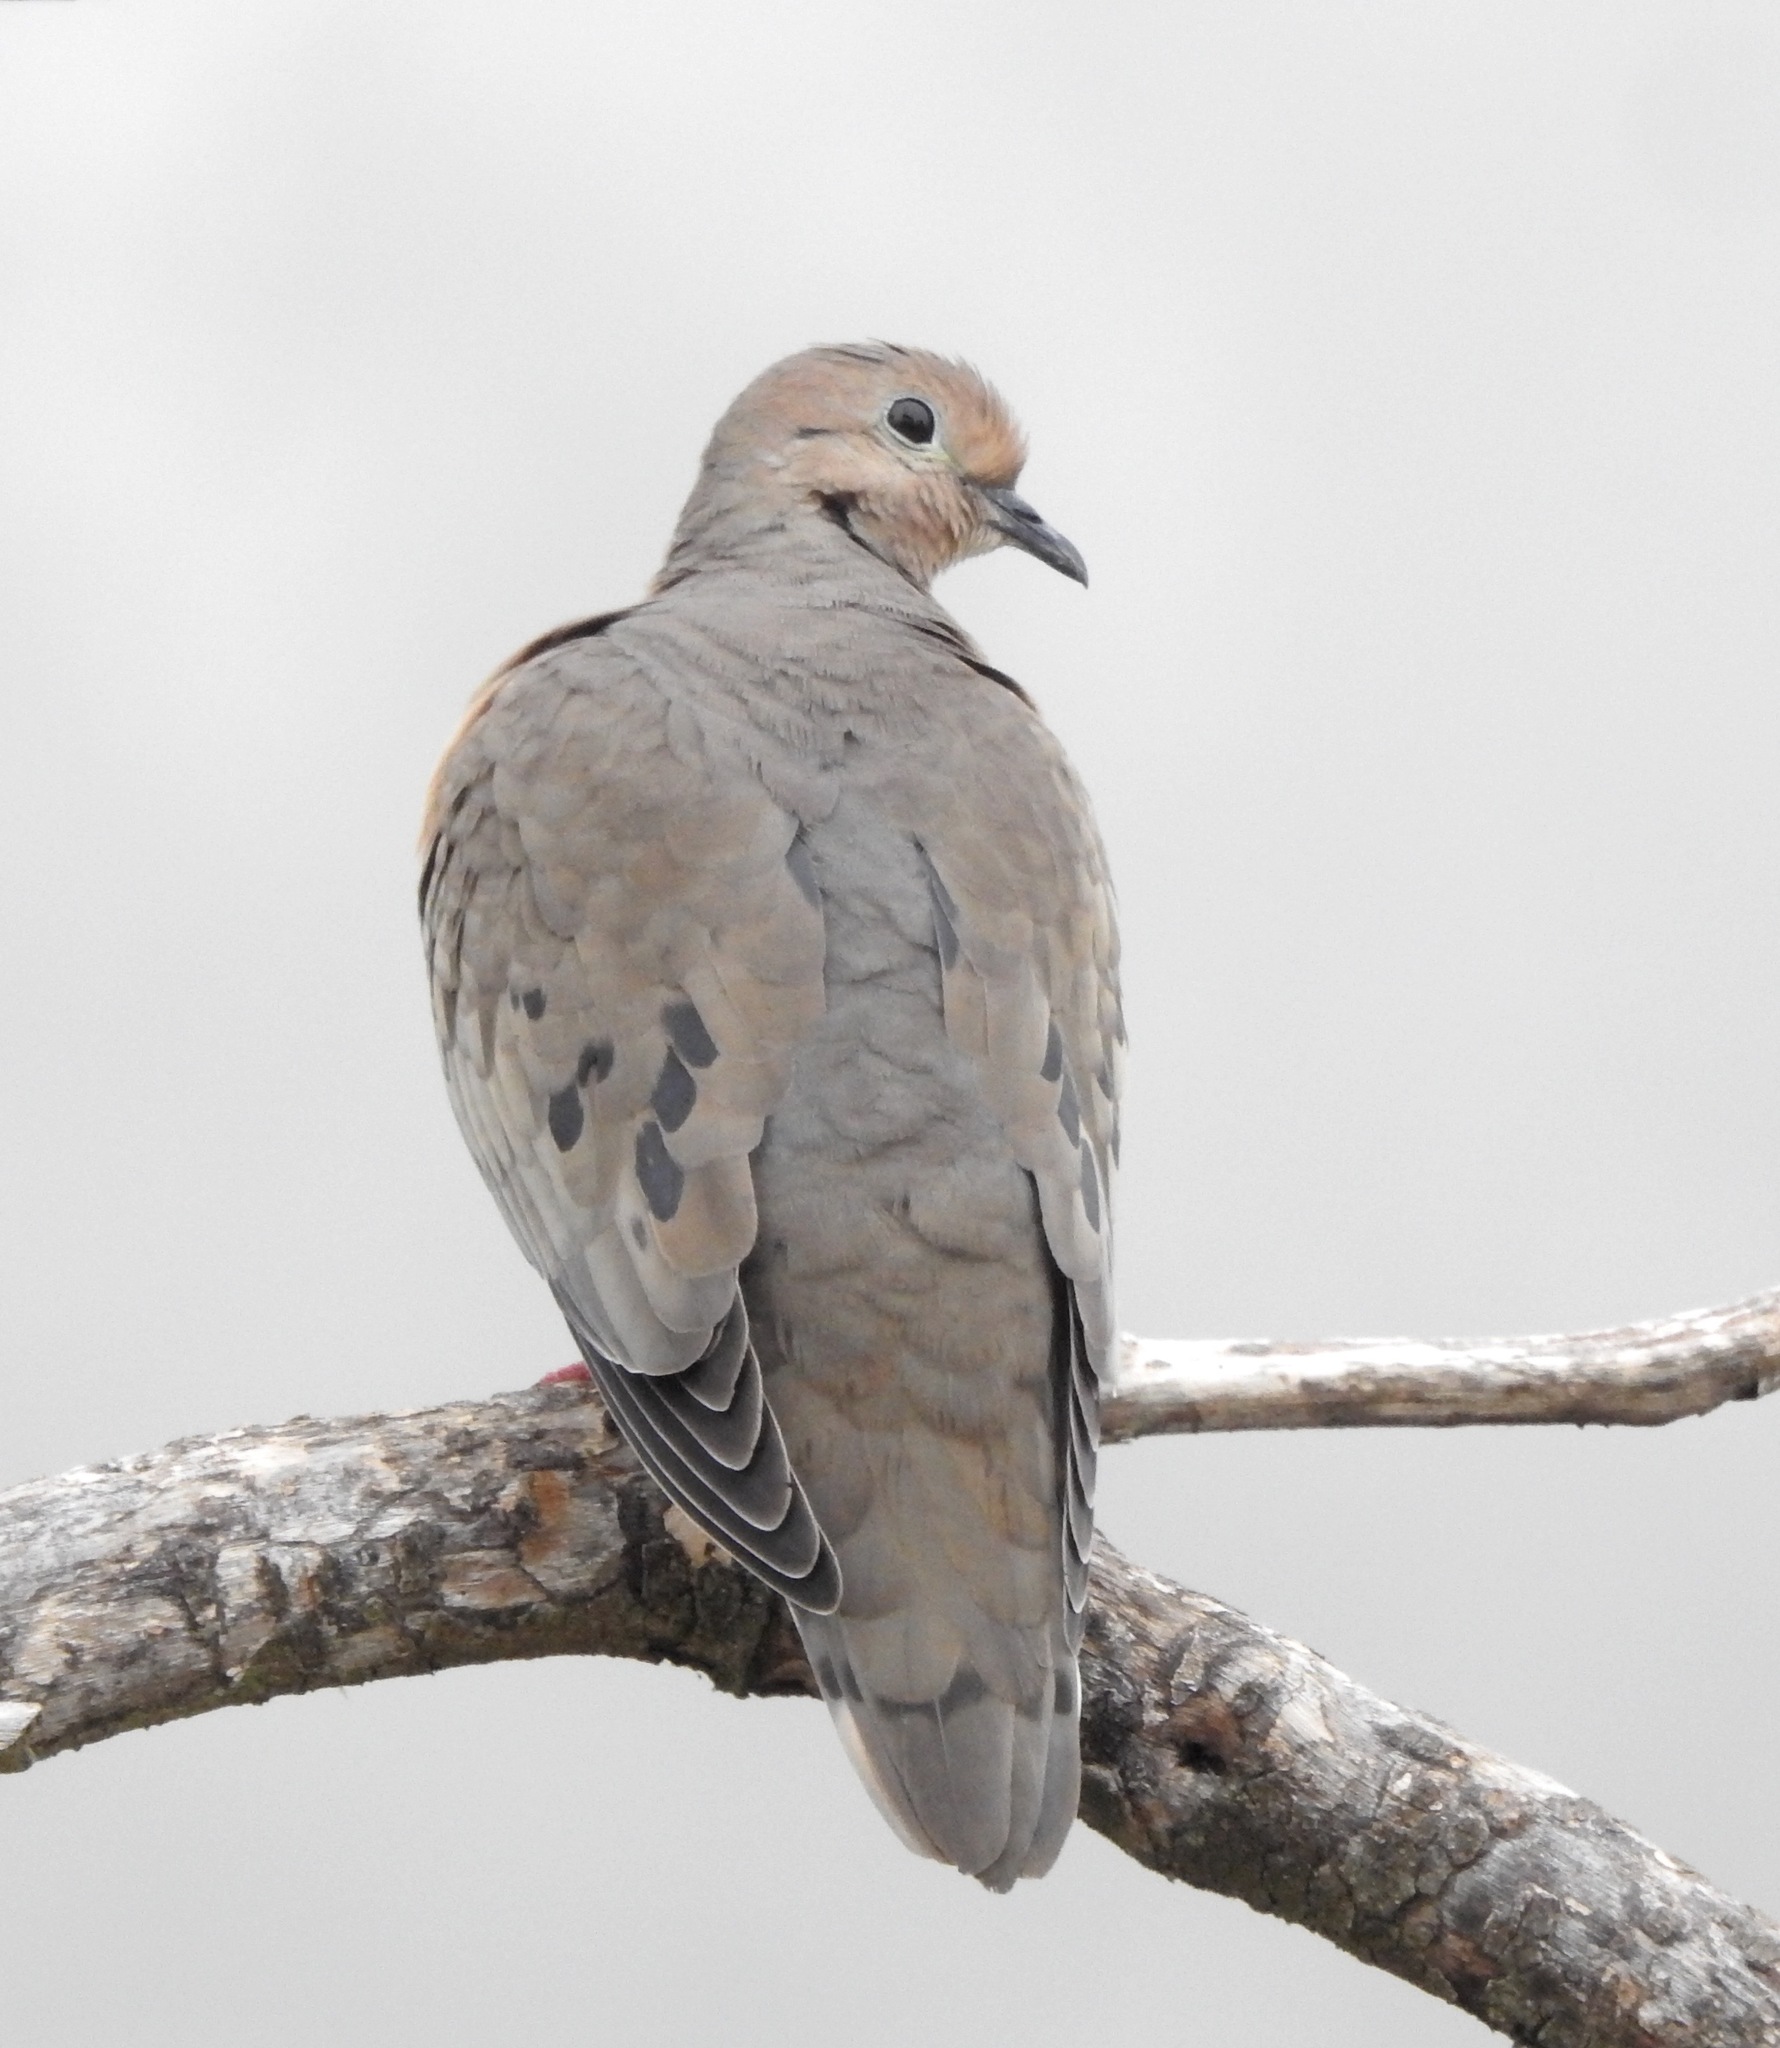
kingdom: Animalia
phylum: Chordata
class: Aves
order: Columbiformes
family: Columbidae
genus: Zenaida
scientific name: Zenaida auriculata
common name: Eared dove
